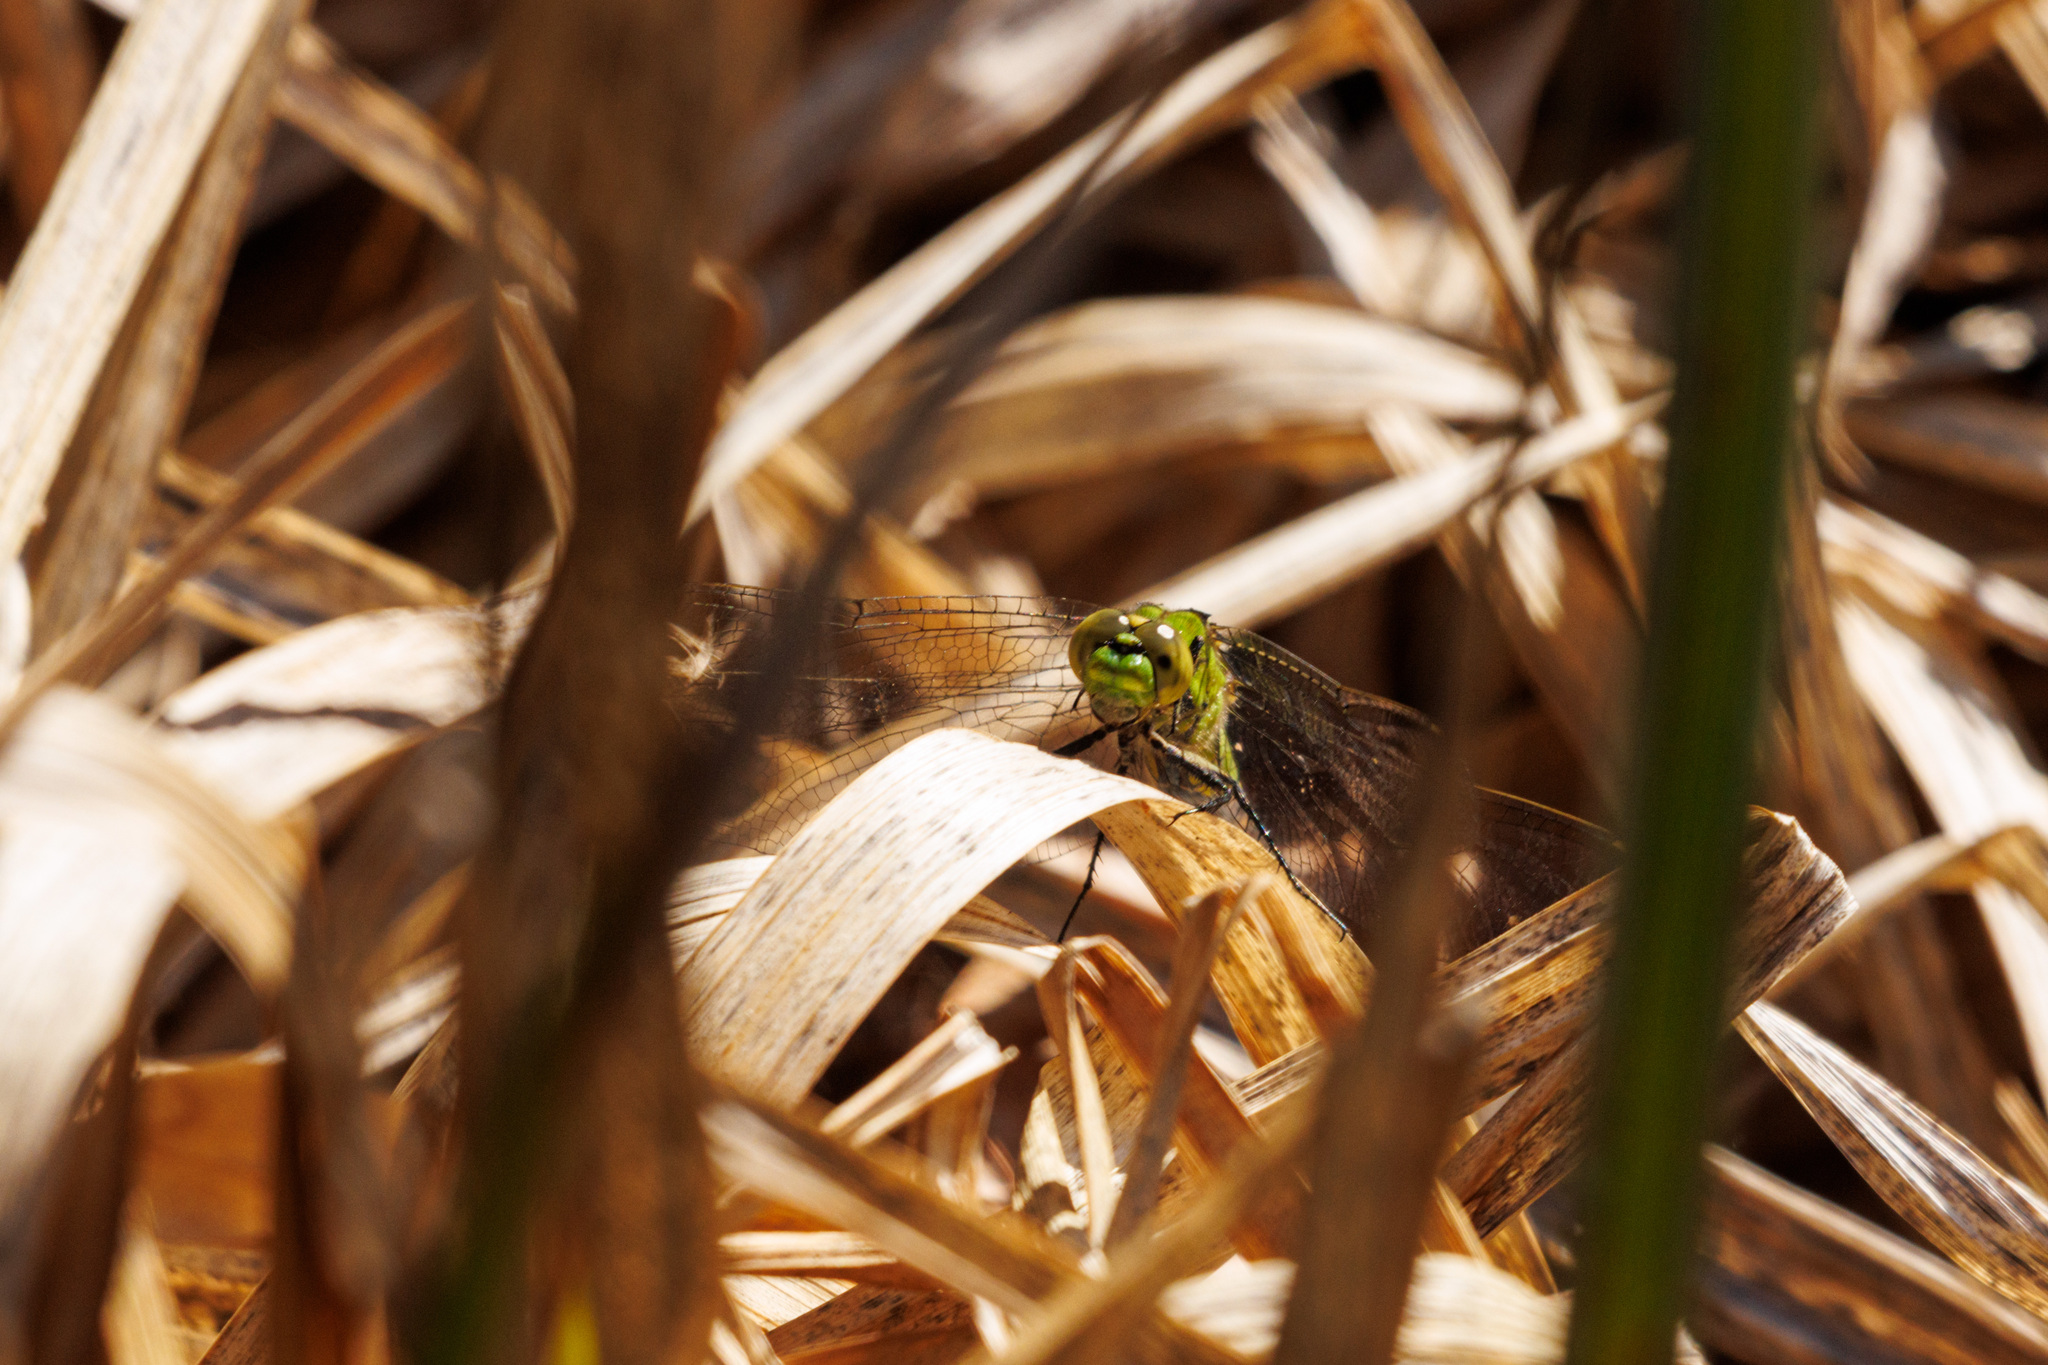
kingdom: Animalia
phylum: Arthropoda
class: Insecta
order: Odonata
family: Libellulidae
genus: Erythemis
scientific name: Erythemis collocata
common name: Western pondhawk
